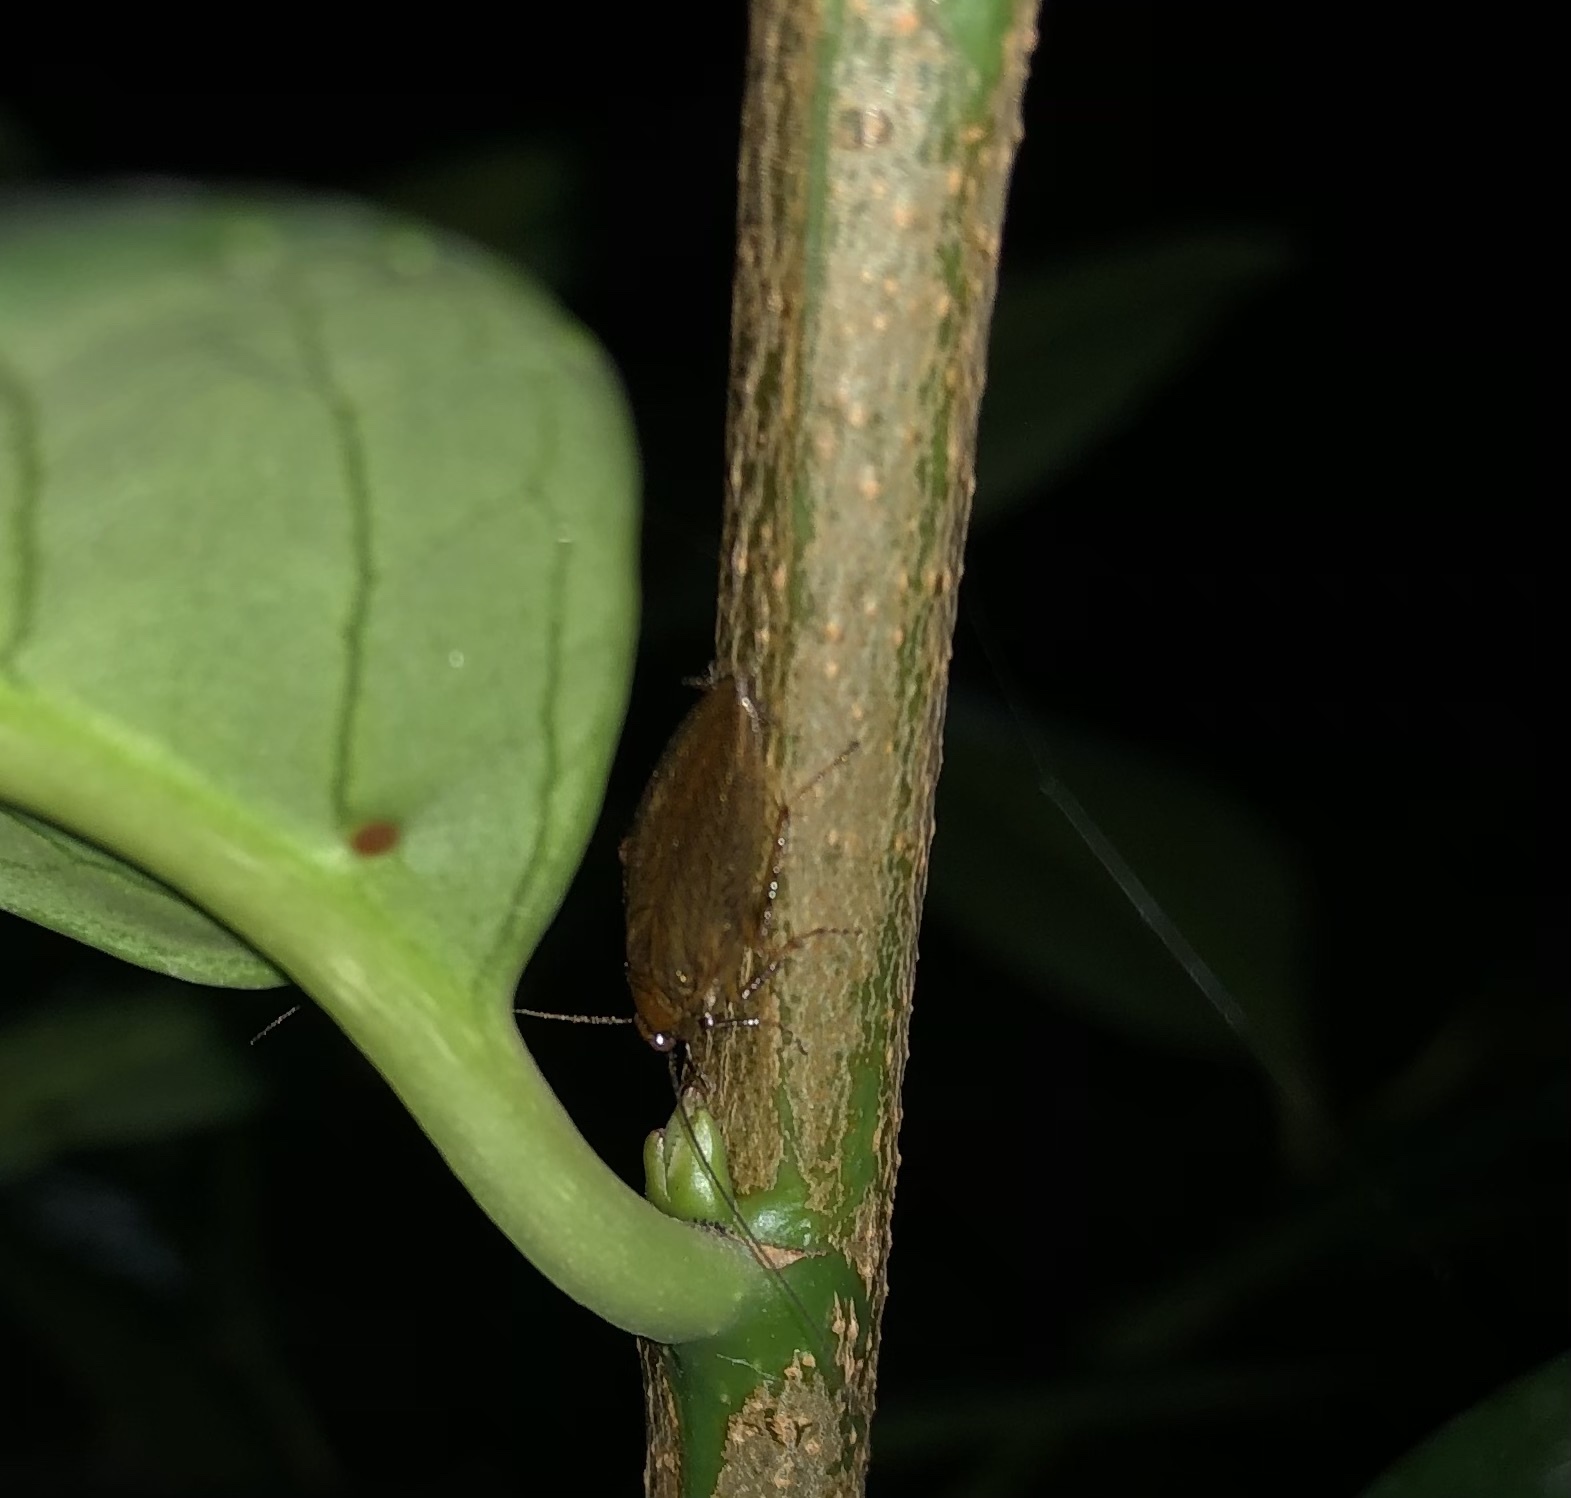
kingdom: Animalia
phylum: Arthropoda
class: Insecta
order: Blattodea
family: Ectobiidae
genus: Ectobius
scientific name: Ectobius vittiventris
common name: Garden cockroach
